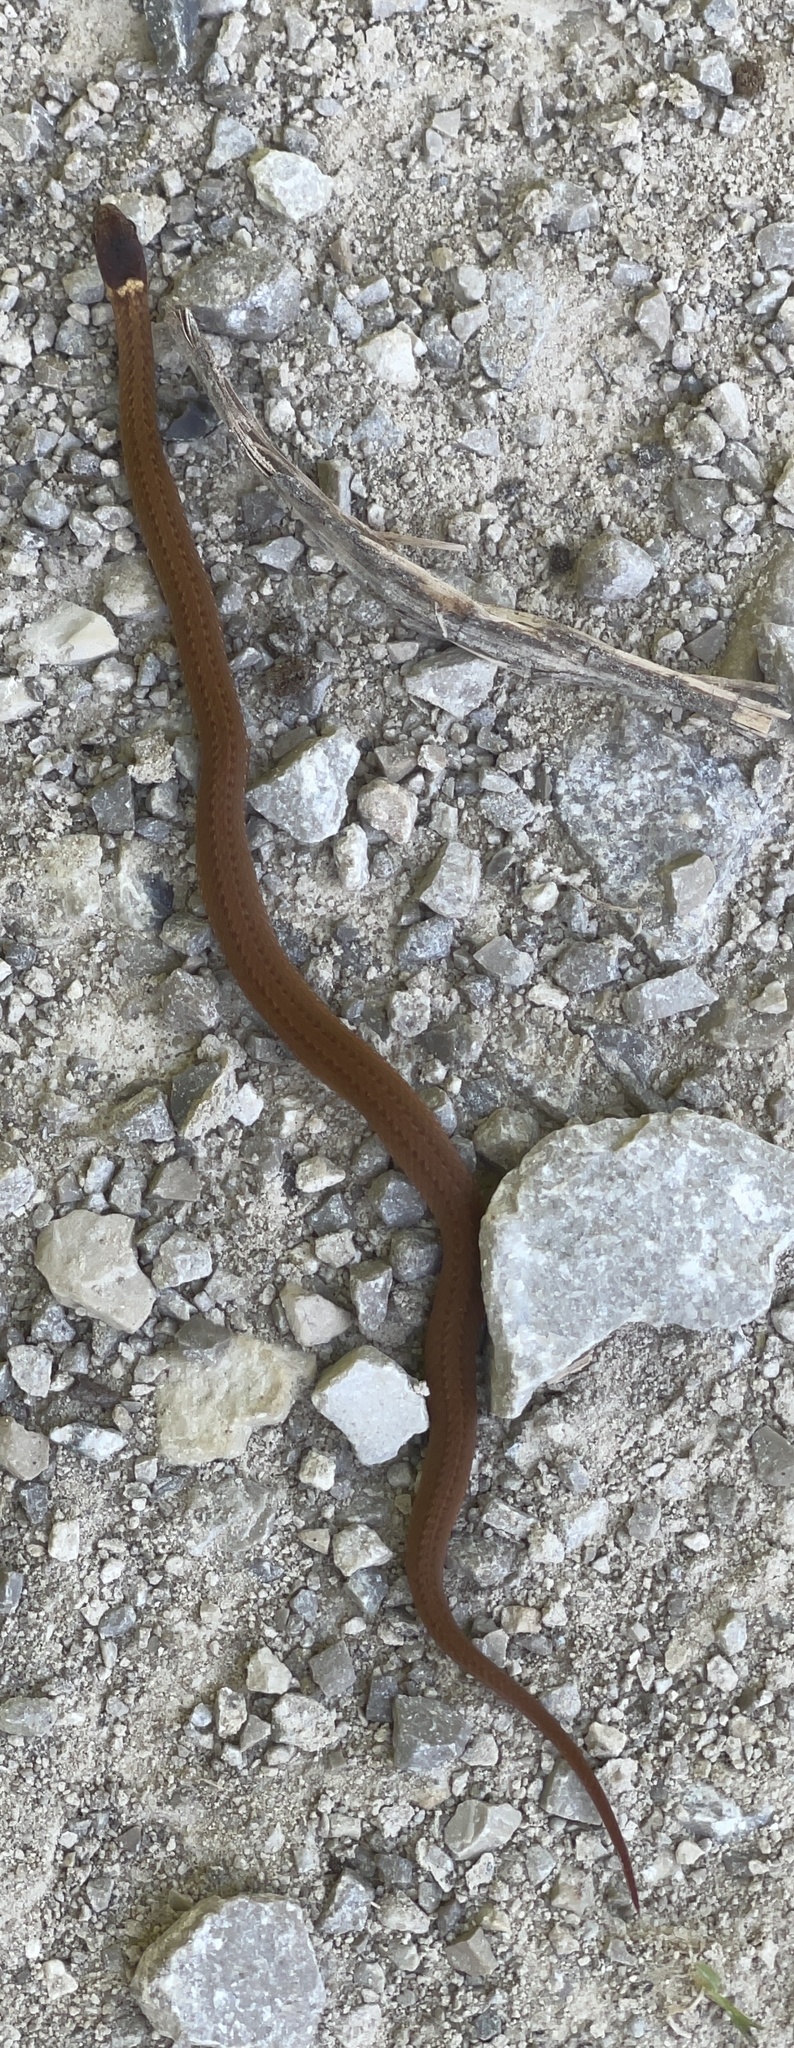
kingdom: Animalia
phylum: Chordata
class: Squamata
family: Colubridae
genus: Storeria
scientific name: Storeria occipitomaculata
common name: Redbelly snake
